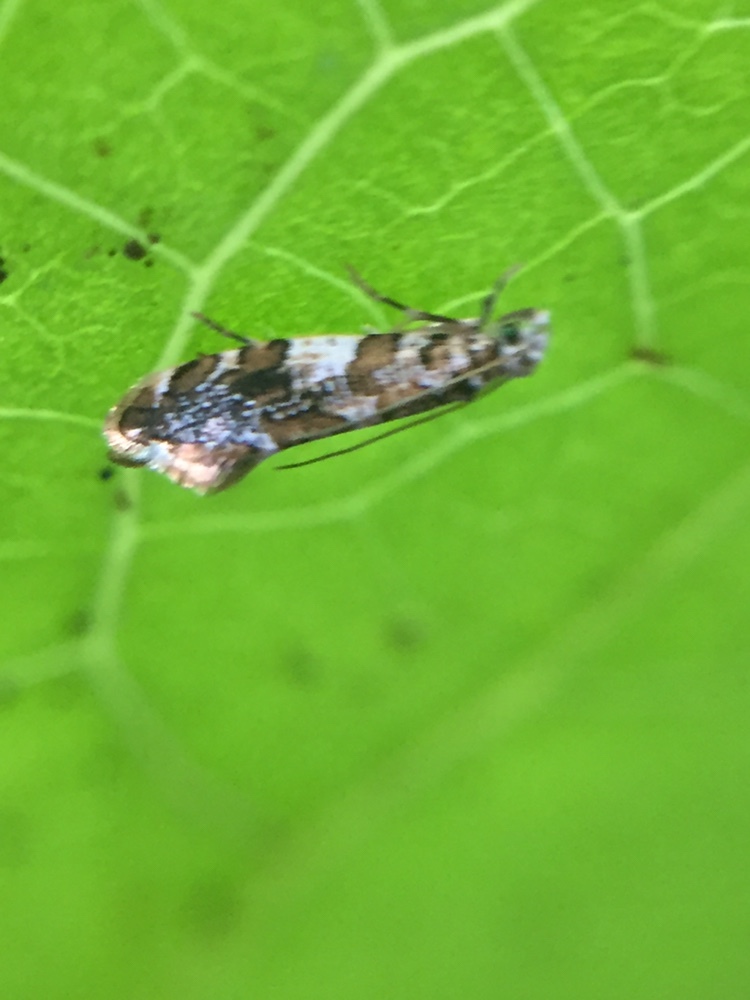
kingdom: Animalia
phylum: Arthropoda
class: Insecta
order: Lepidoptera
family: Tineidae
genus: Eschatotypa
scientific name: Eschatotypa derogatella
